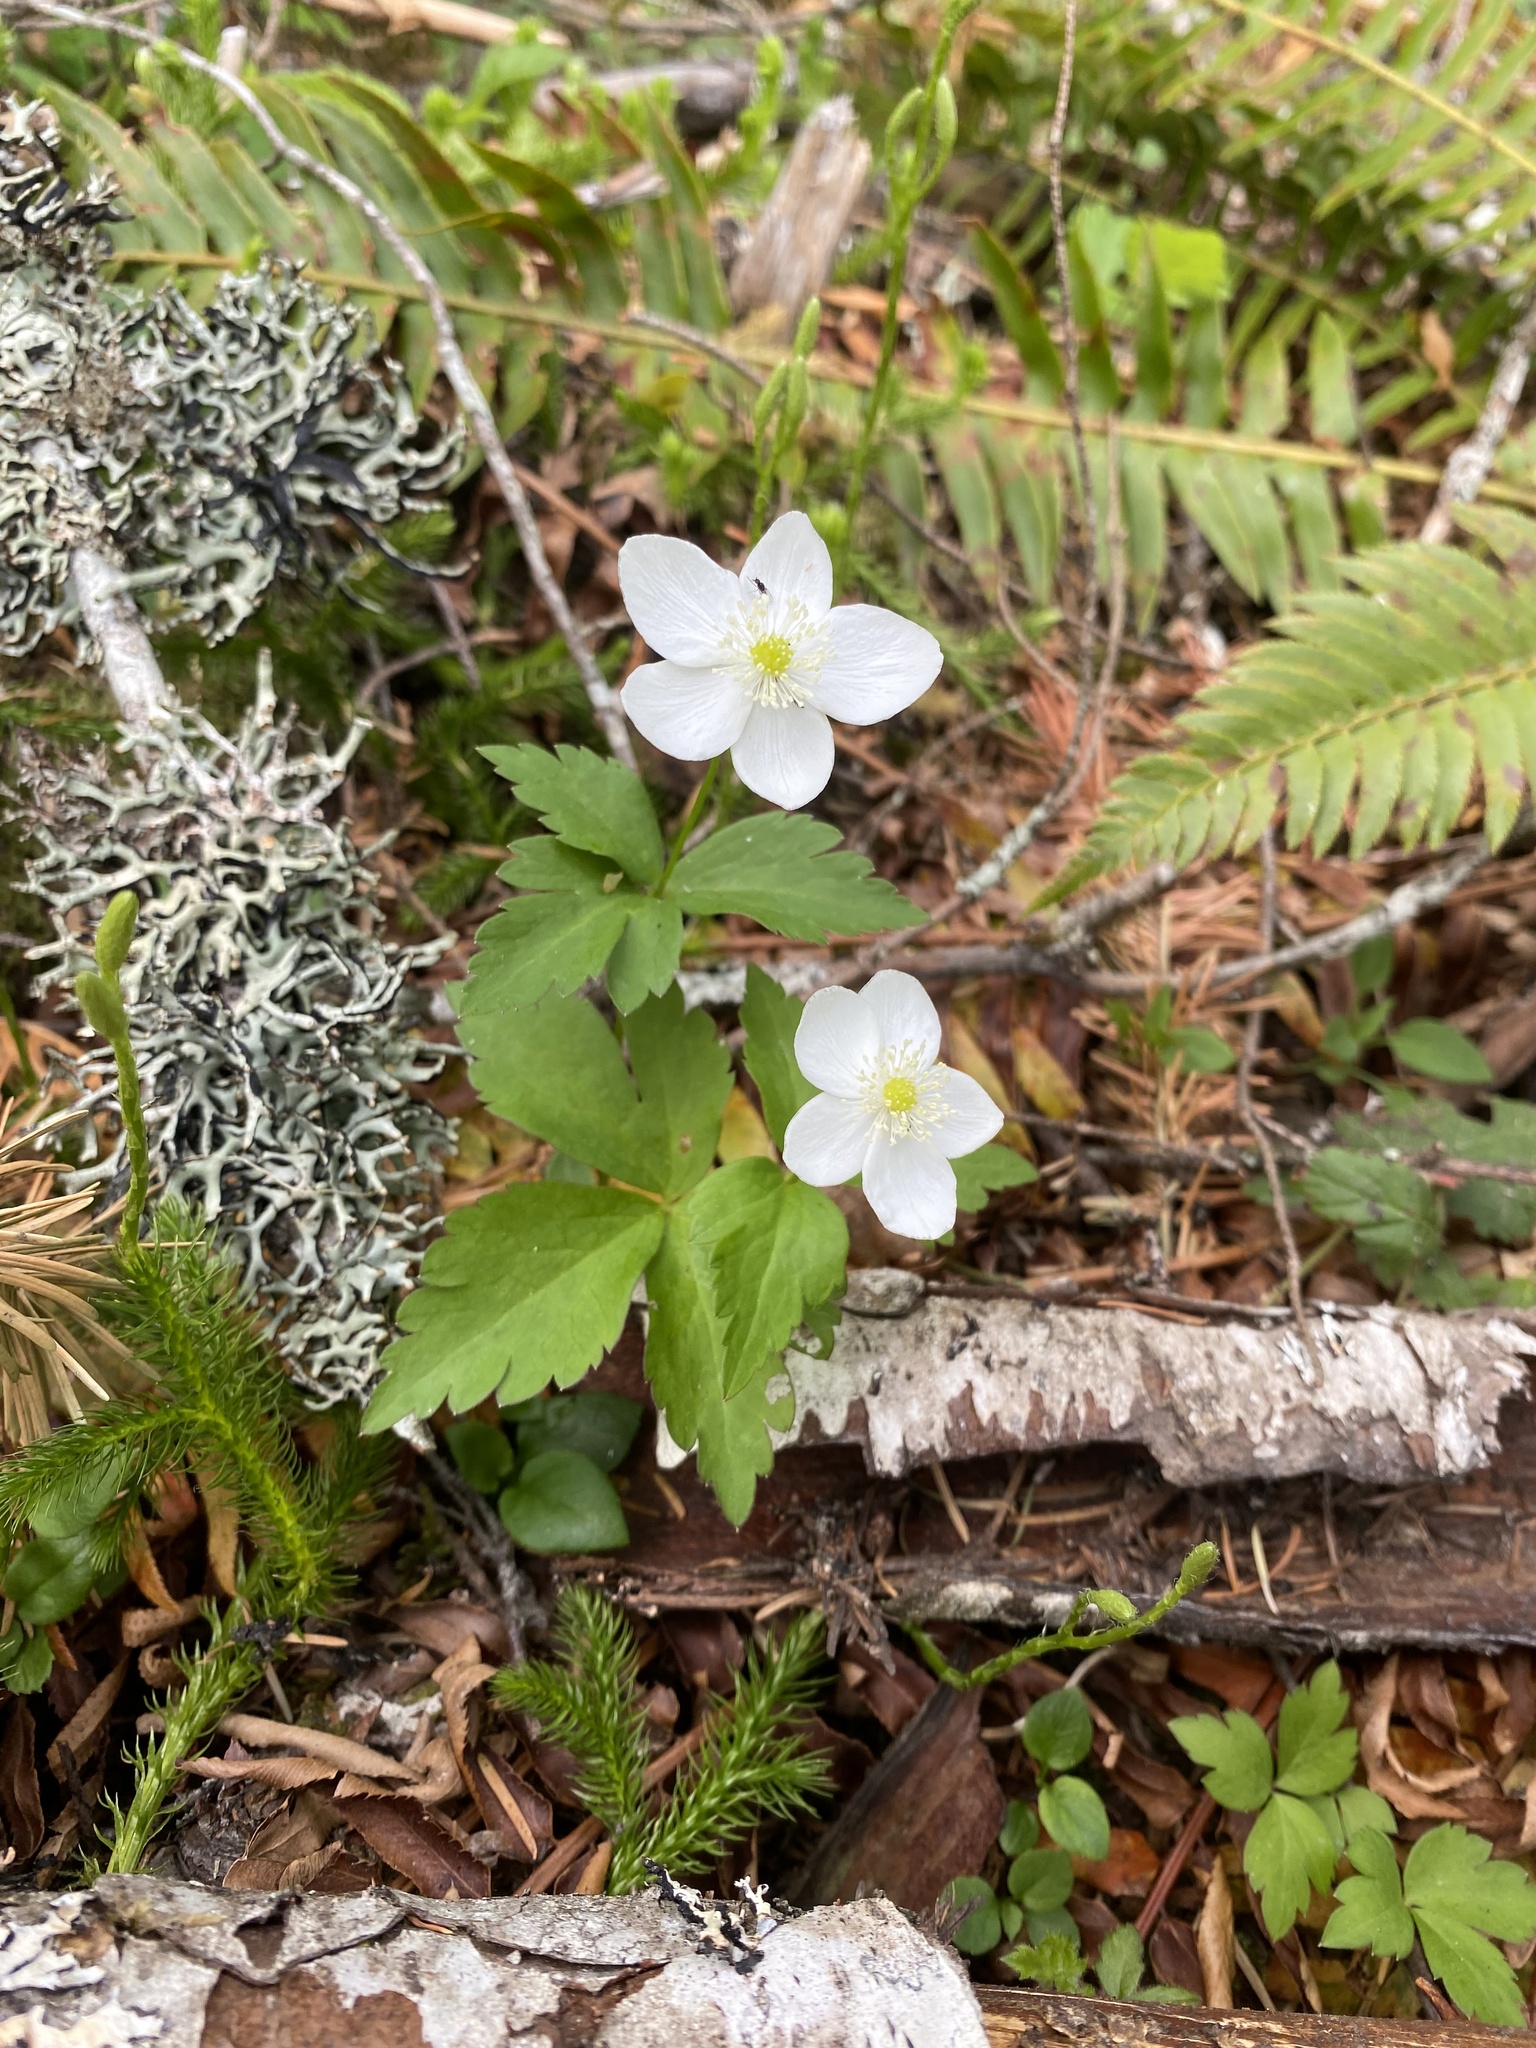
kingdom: Plantae
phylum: Tracheophyta
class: Magnoliopsida
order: Ranunculales
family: Ranunculaceae
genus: Anemonastrum
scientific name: Anemonastrum deltoideum
